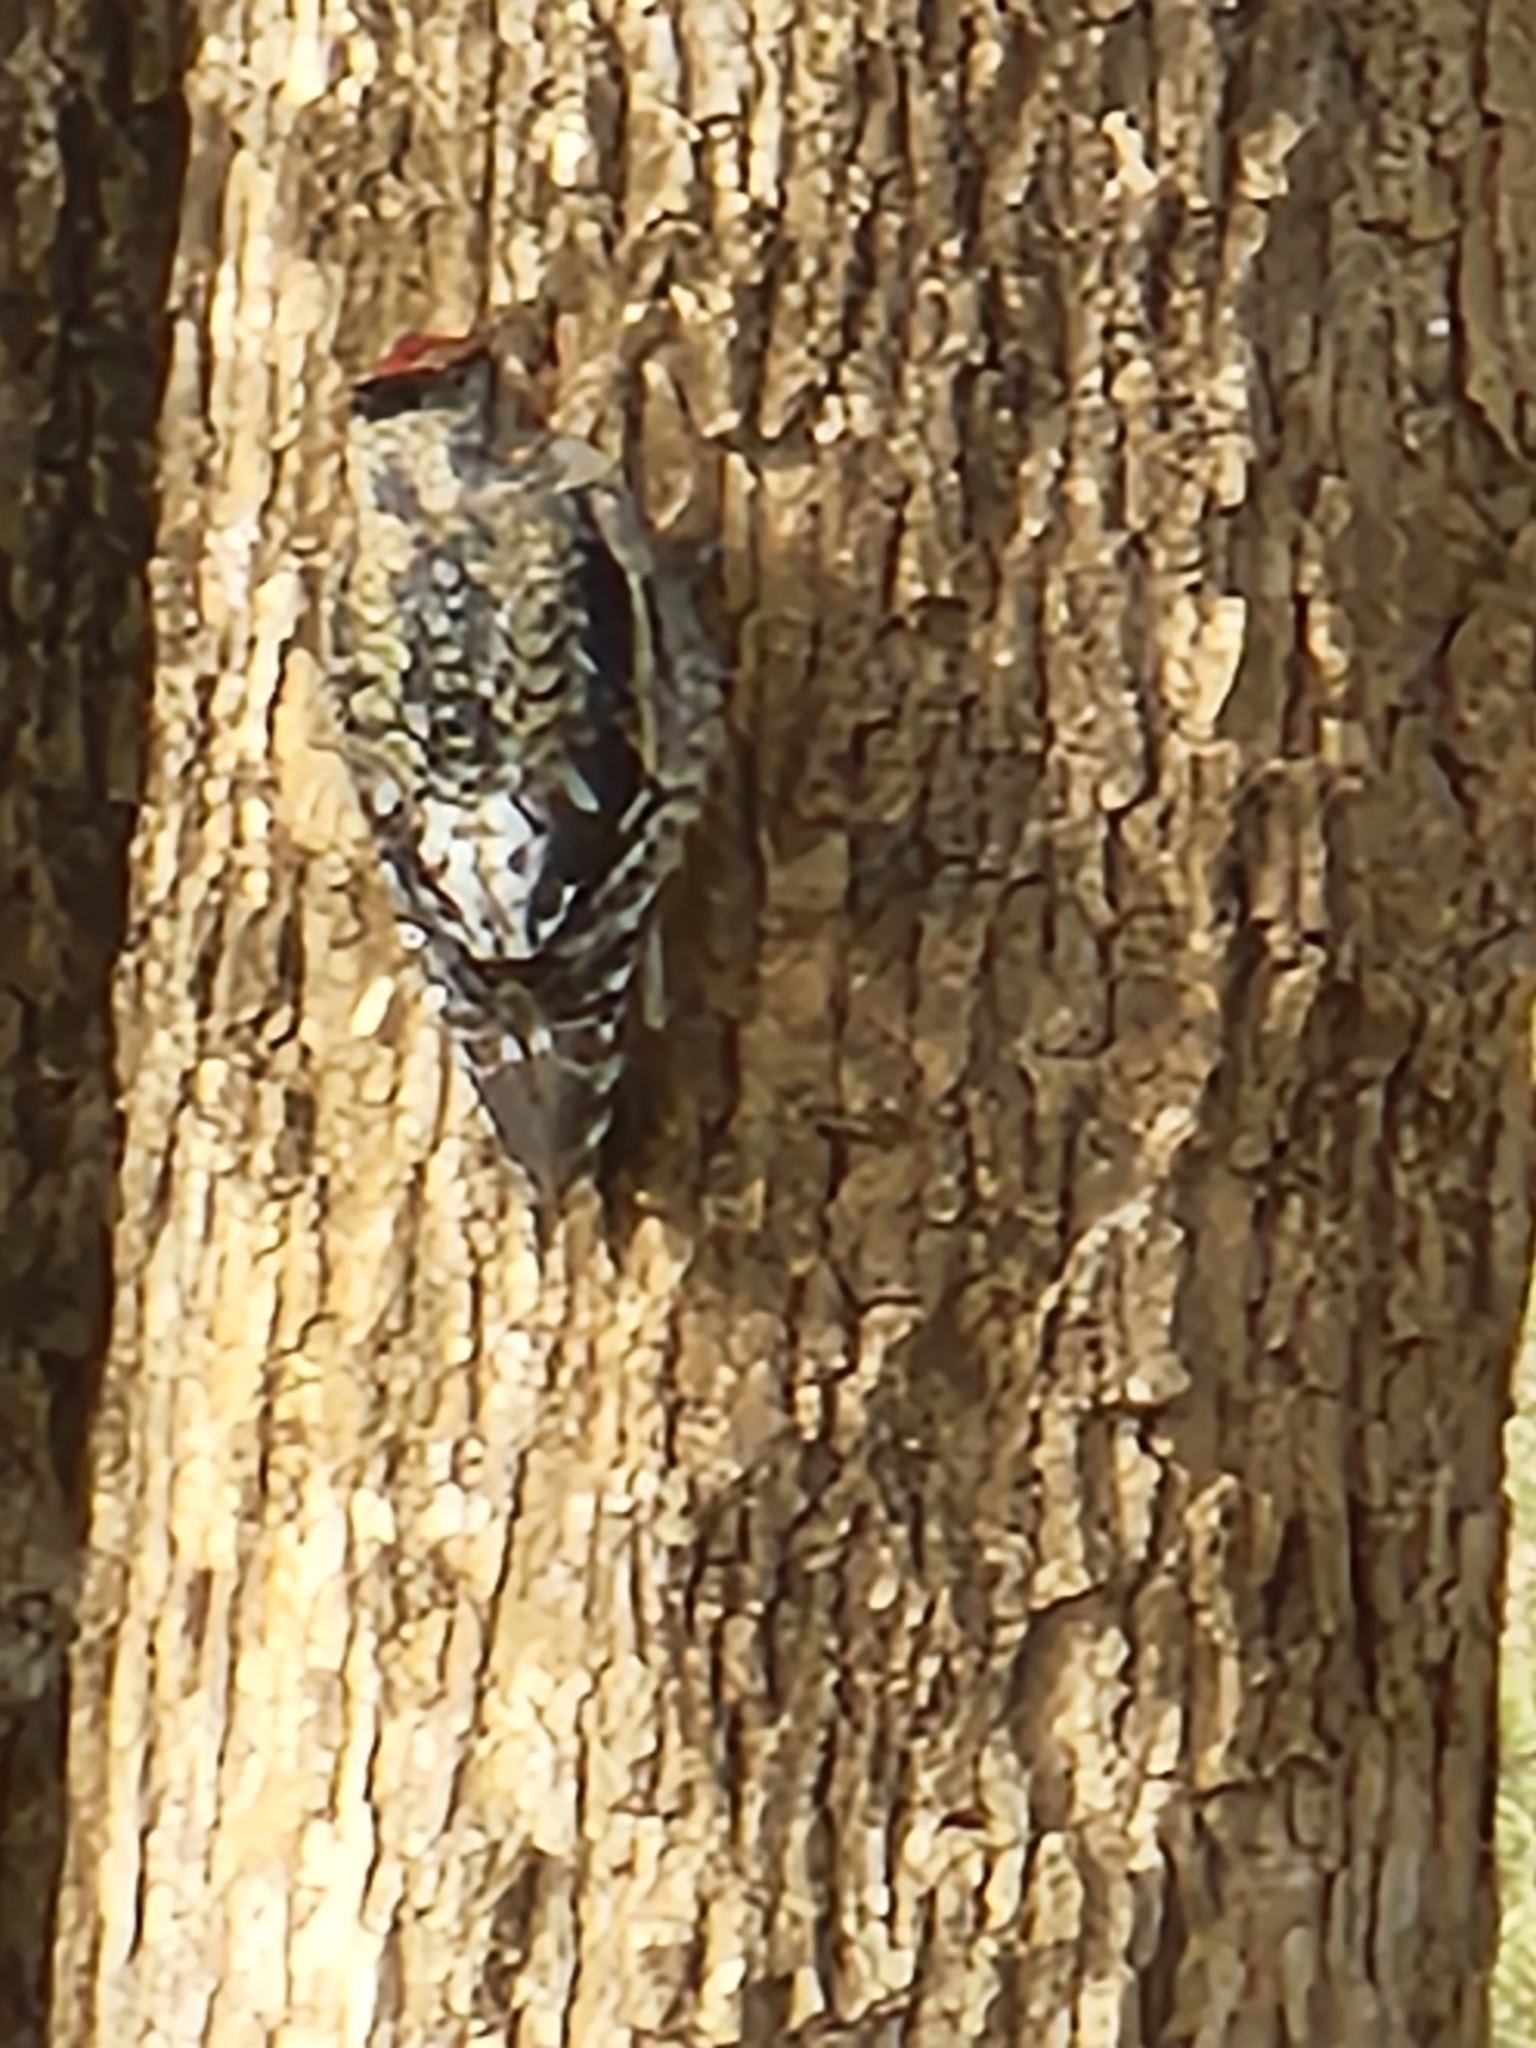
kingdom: Animalia
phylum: Chordata
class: Aves
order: Piciformes
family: Picidae
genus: Sphyrapicus
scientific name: Sphyrapicus varius
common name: Yellow-bellied sapsucker
